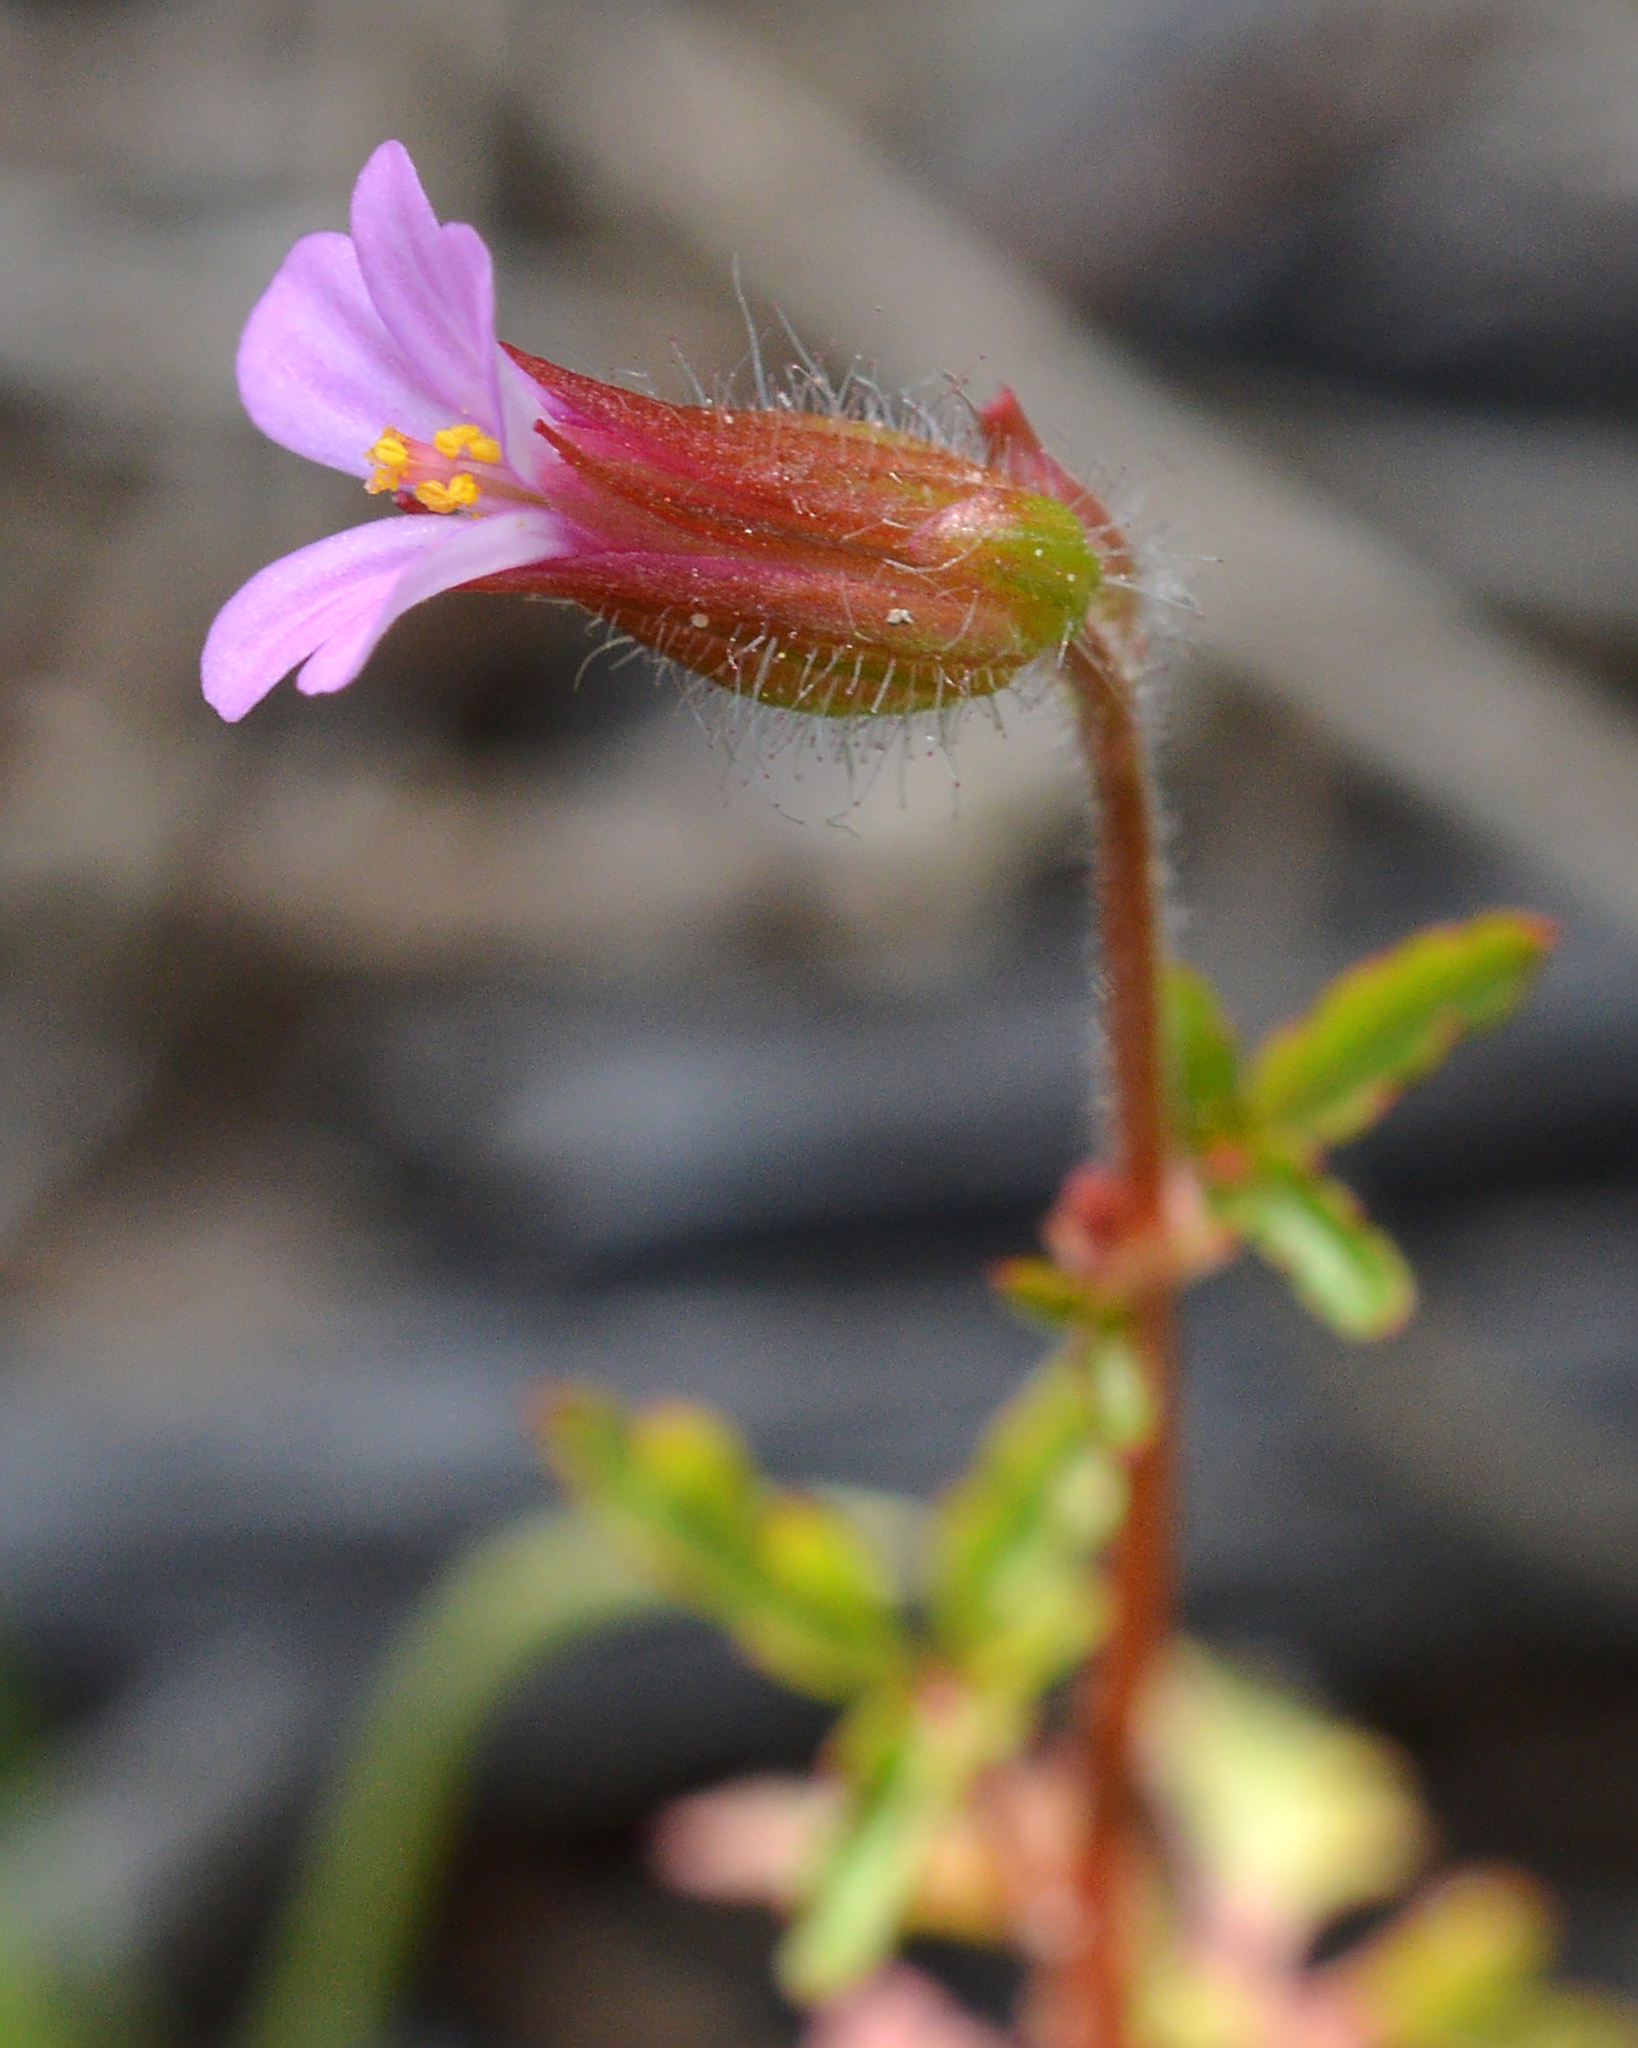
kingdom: Plantae
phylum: Tracheophyta
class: Magnoliopsida
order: Geraniales
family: Geraniaceae
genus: Geranium
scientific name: Geranium purpureum
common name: Little-robin
